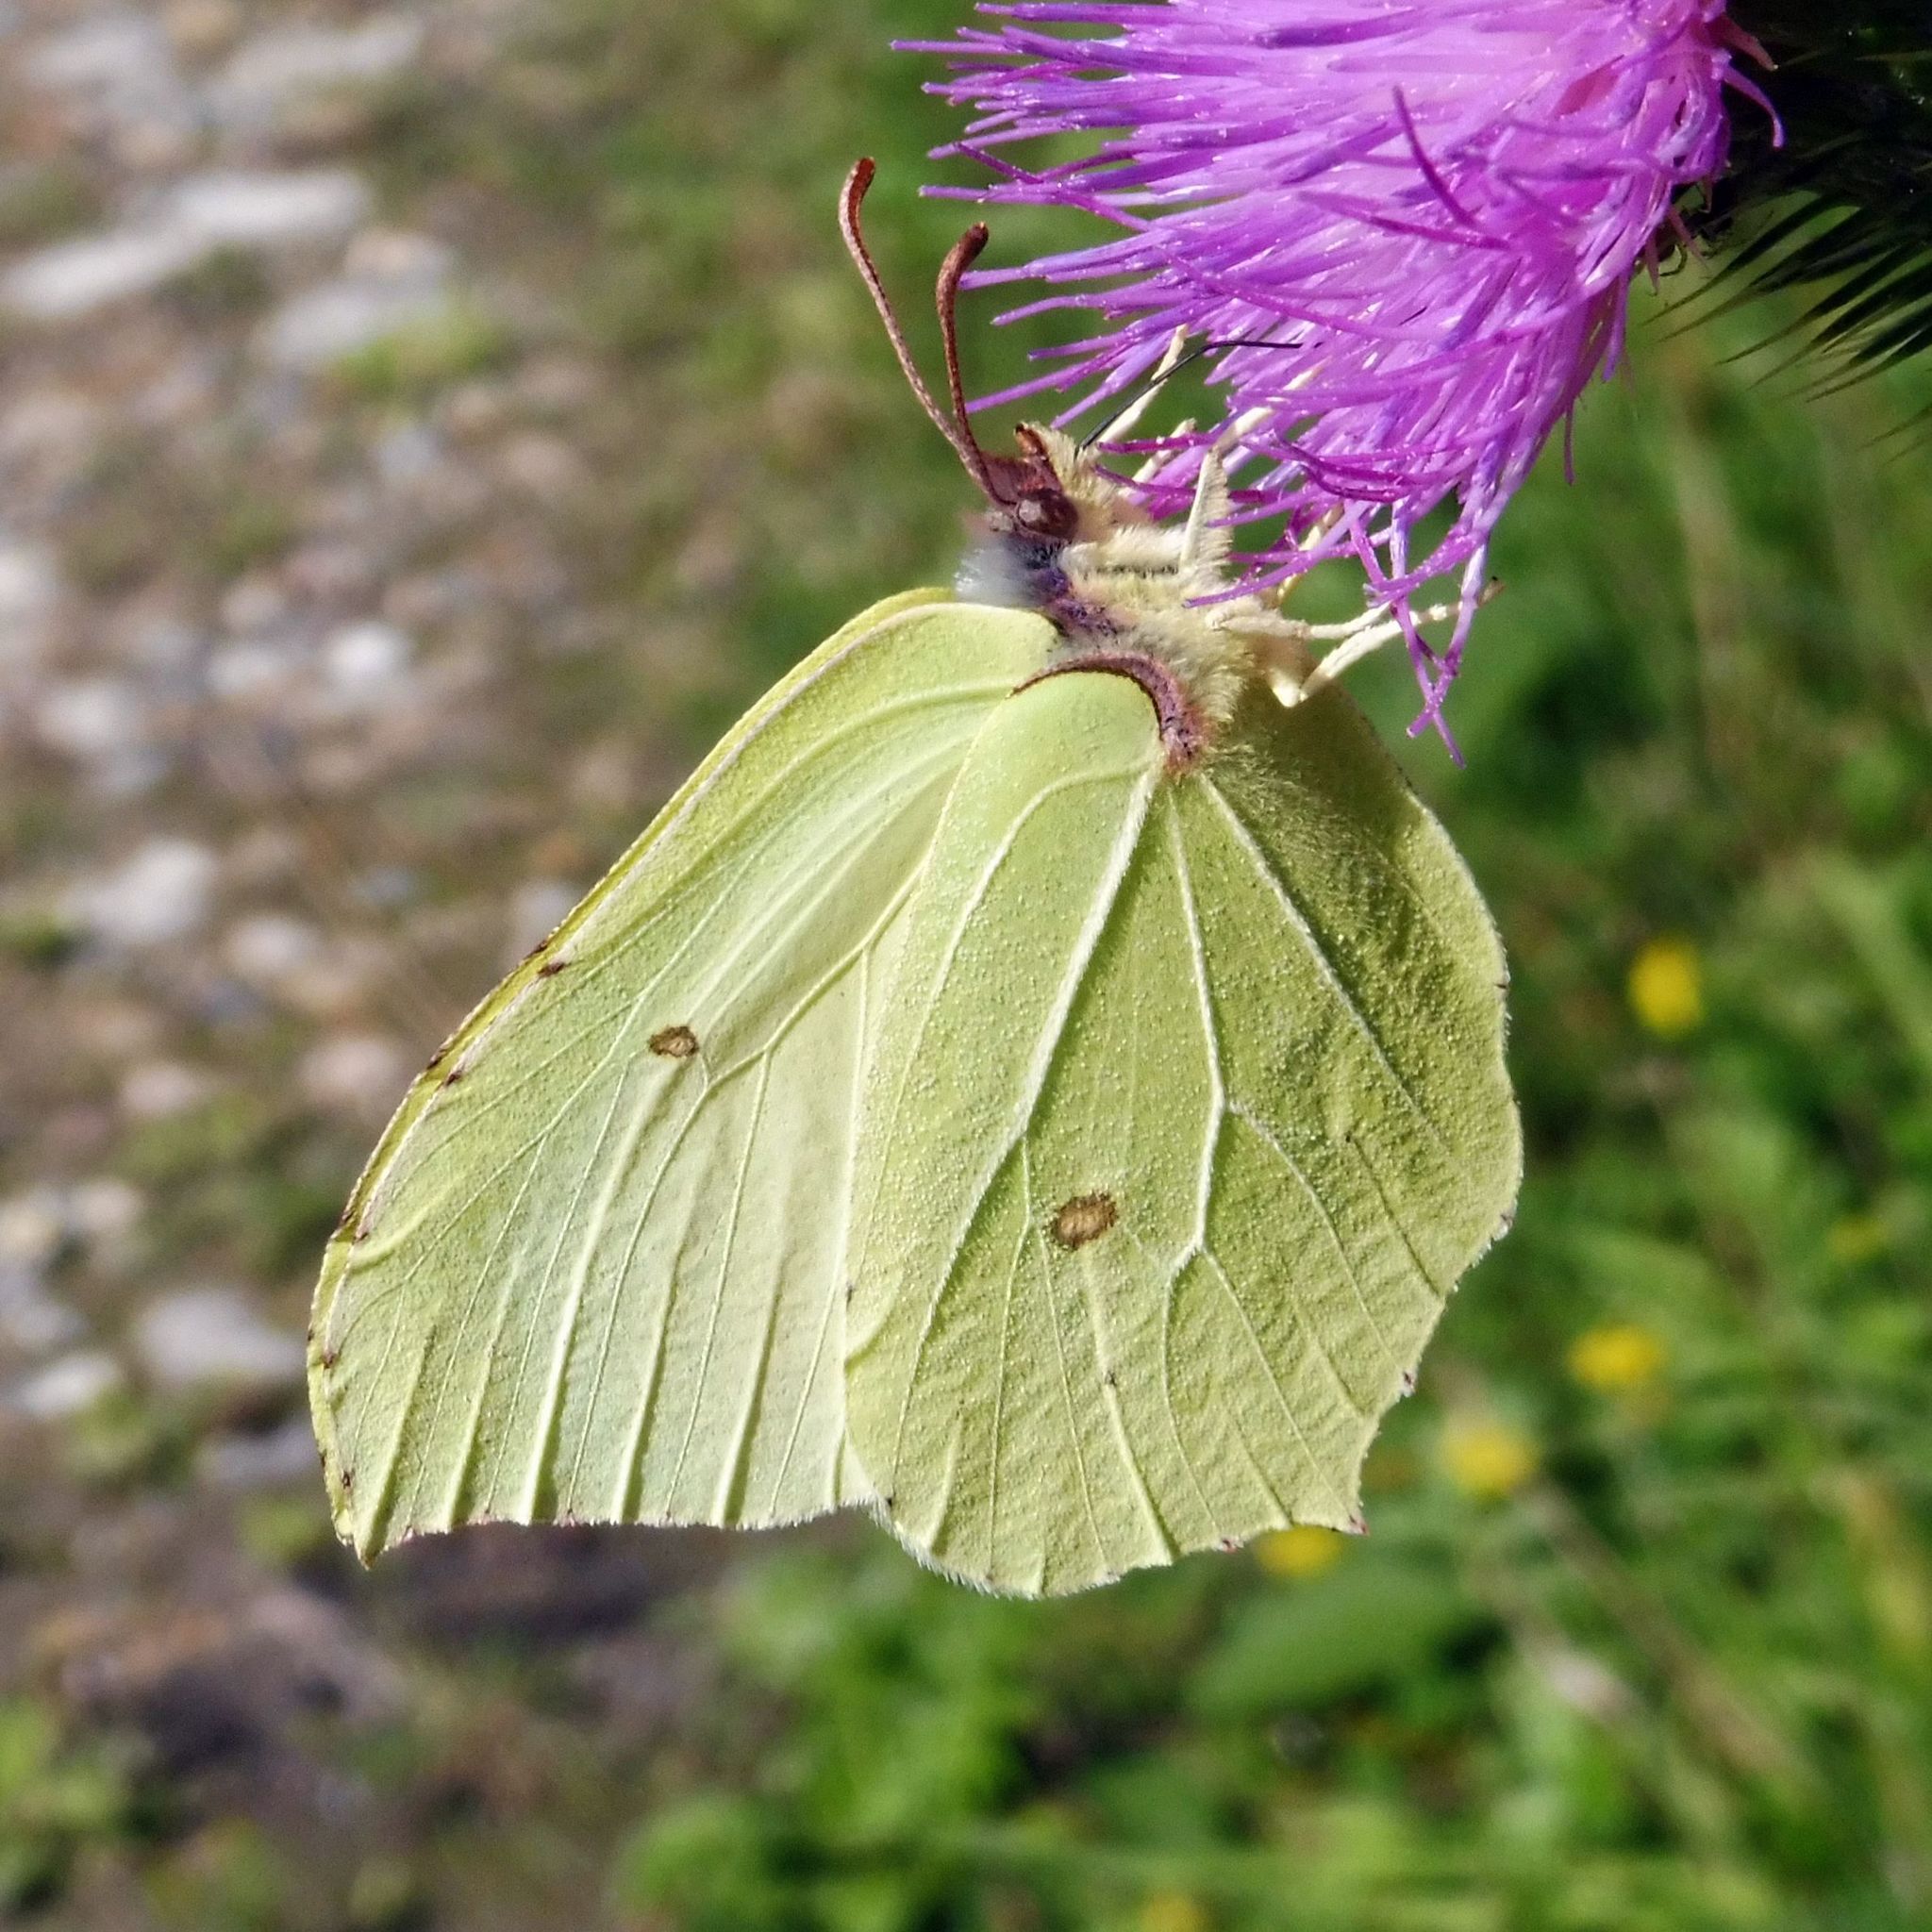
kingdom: Animalia
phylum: Arthropoda
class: Insecta
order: Lepidoptera
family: Pieridae
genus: Gonepteryx
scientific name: Gonepteryx rhamni
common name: Brimstone
